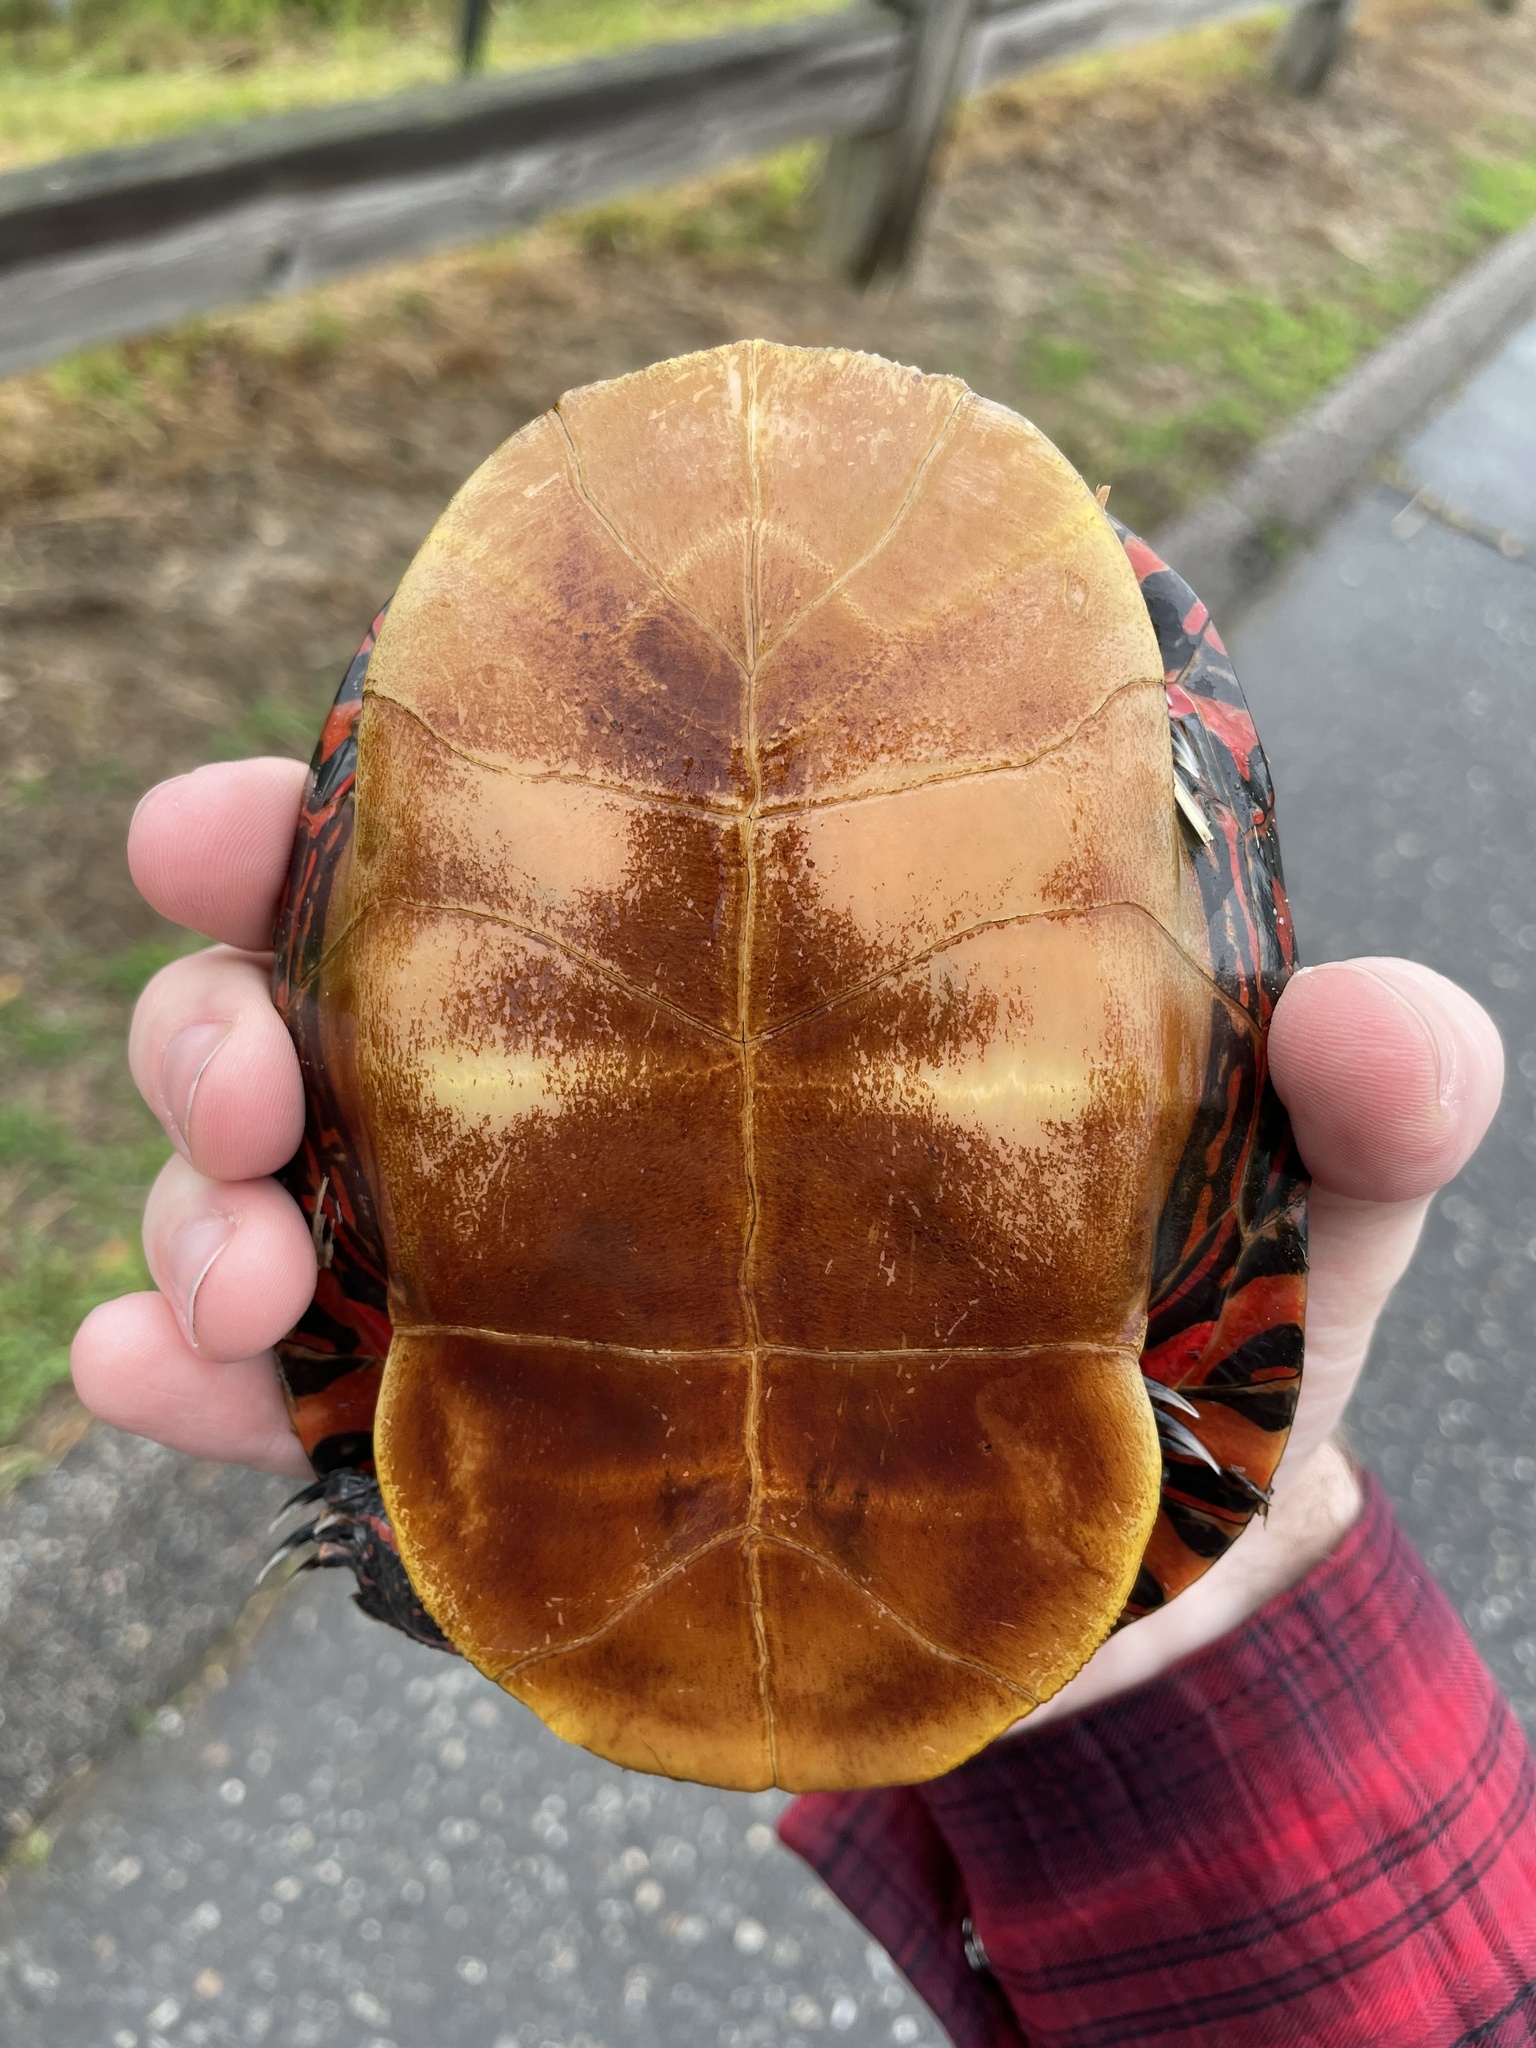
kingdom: Animalia
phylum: Chordata
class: Testudines
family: Emydidae
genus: Chrysemys
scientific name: Chrysemys picta
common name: Painted turtle
